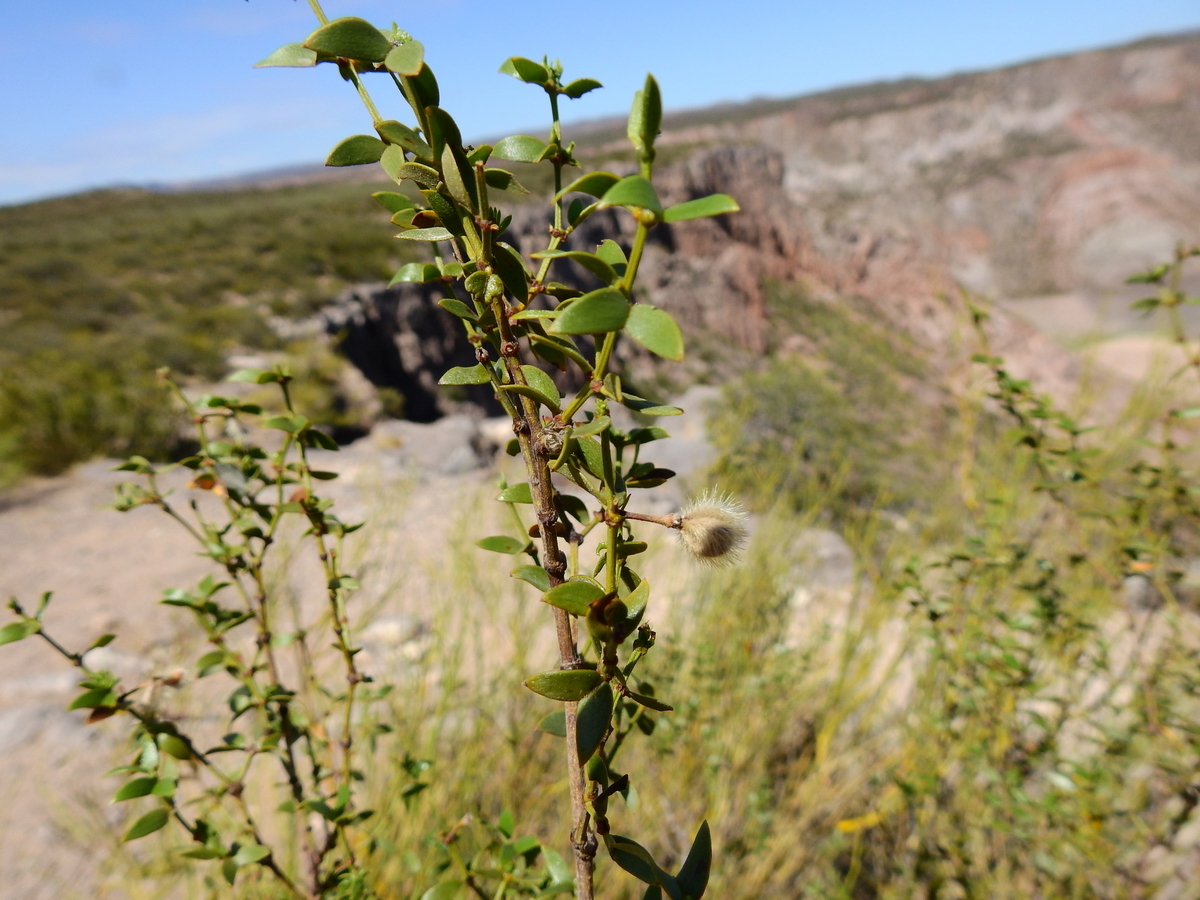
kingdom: Plantae
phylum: Tracheophyta
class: Magnoliopsida
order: Zygophyllales
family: Zygophyllaceae
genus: Larrea
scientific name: Larrea divaricata
